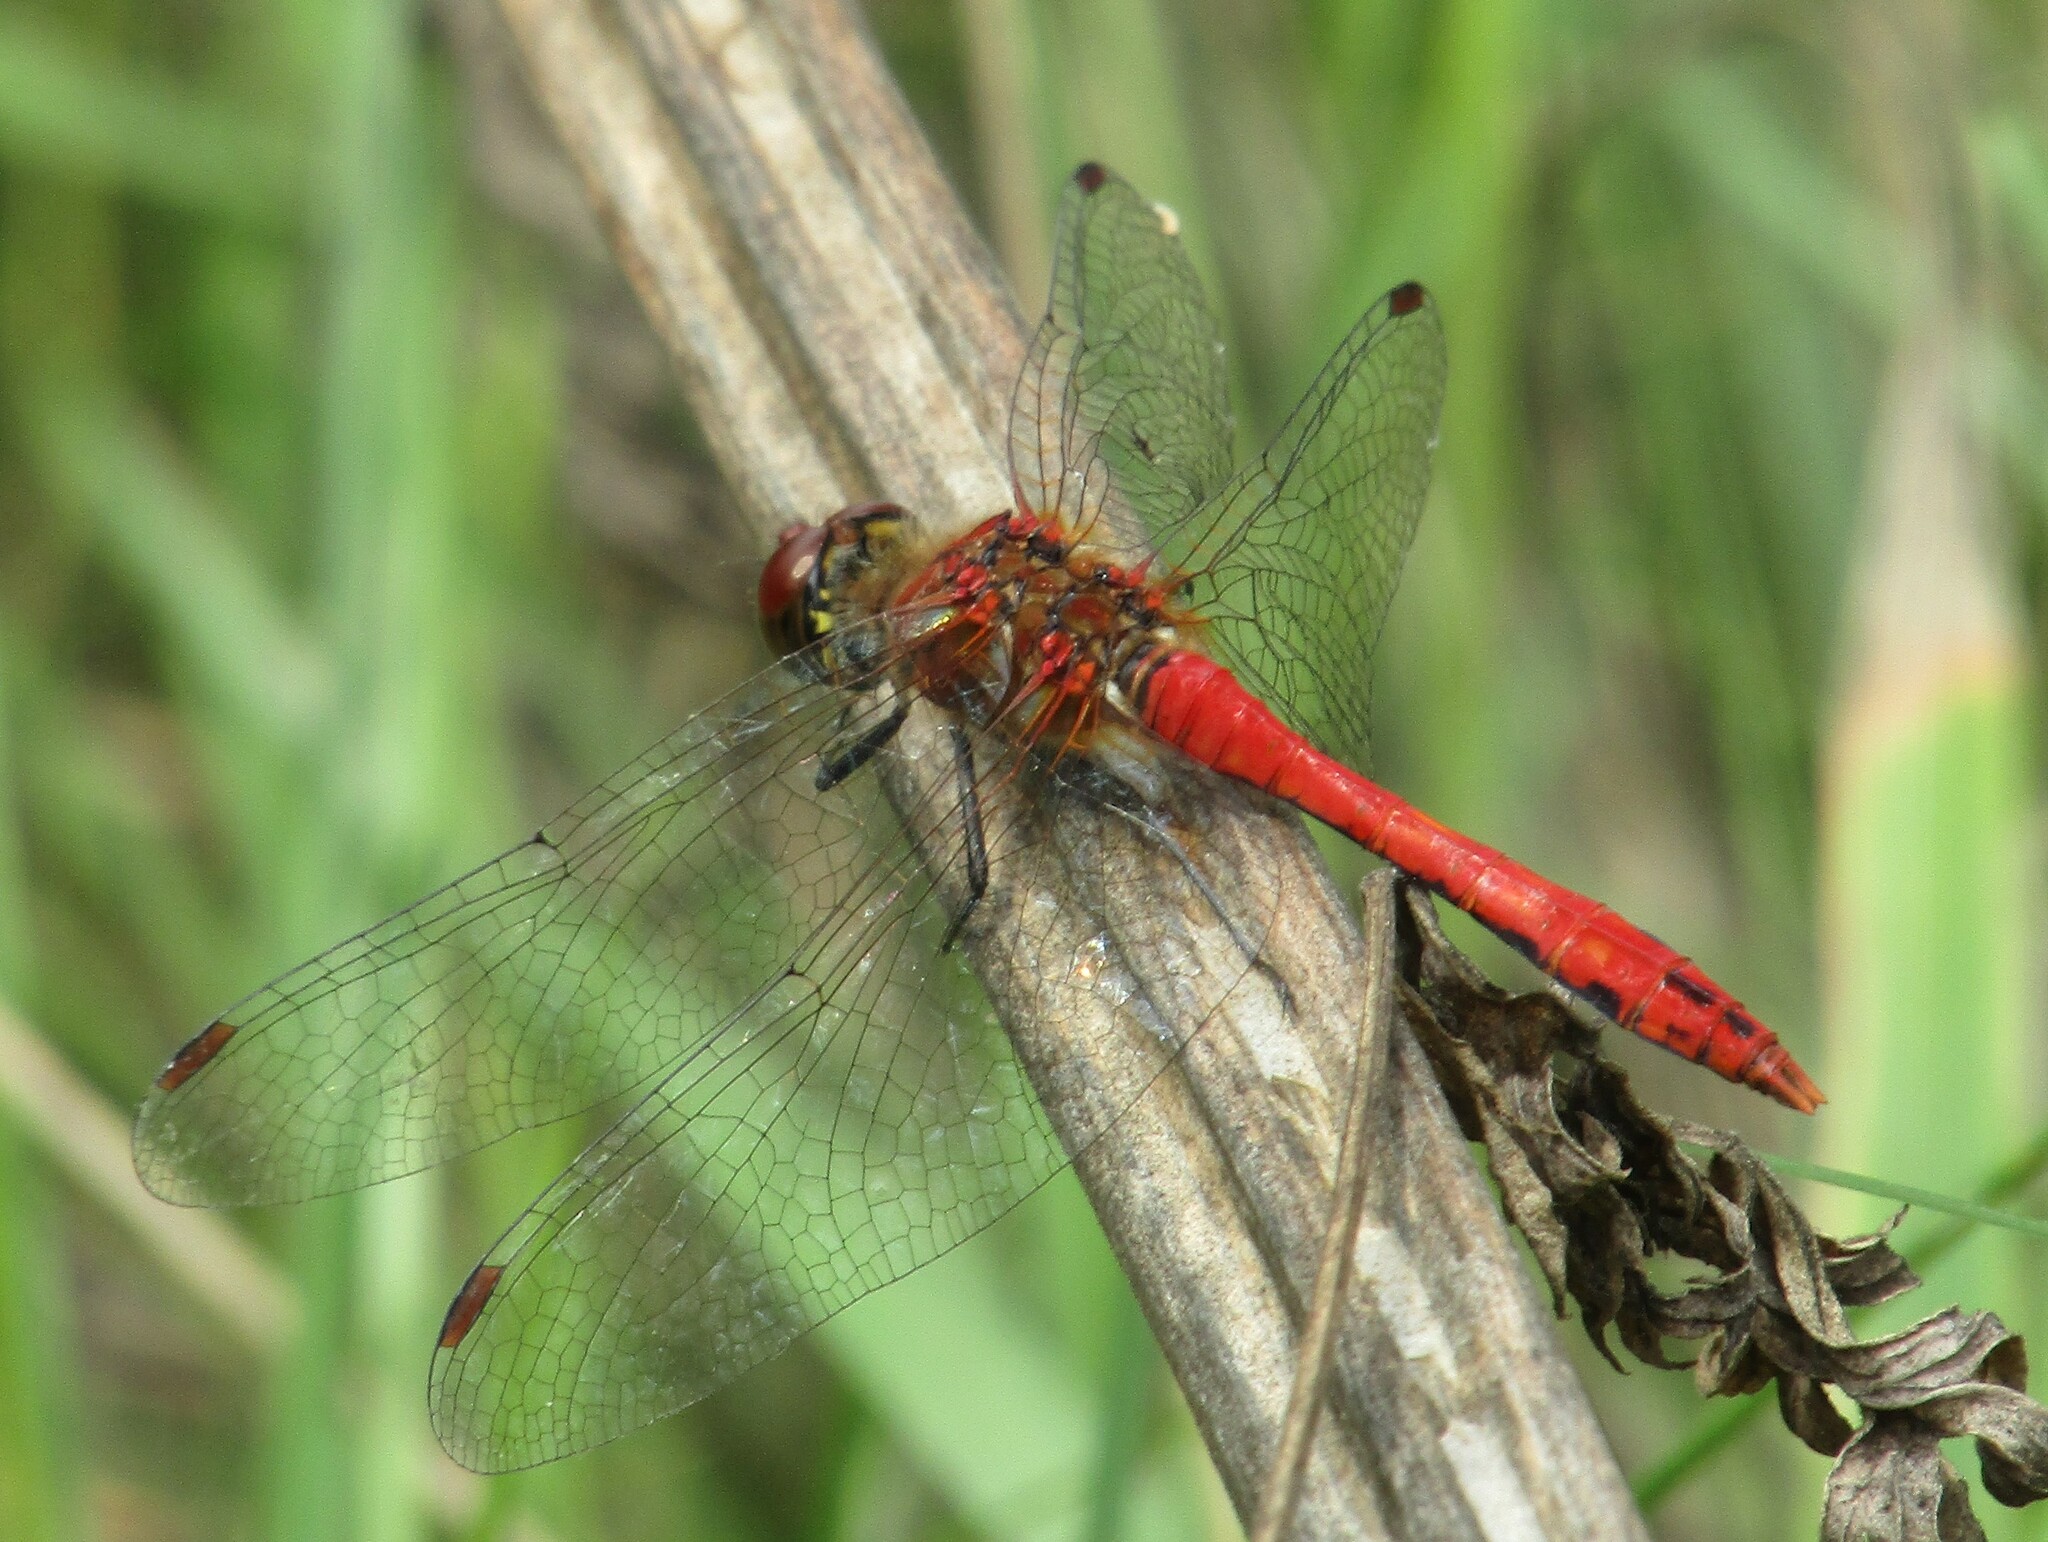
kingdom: Animalia
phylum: Arthropoda
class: Insecta
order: Odonata
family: Libellulidae
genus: Sympetrum
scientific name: Sympetrum sanguineum
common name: Ruddy darter
